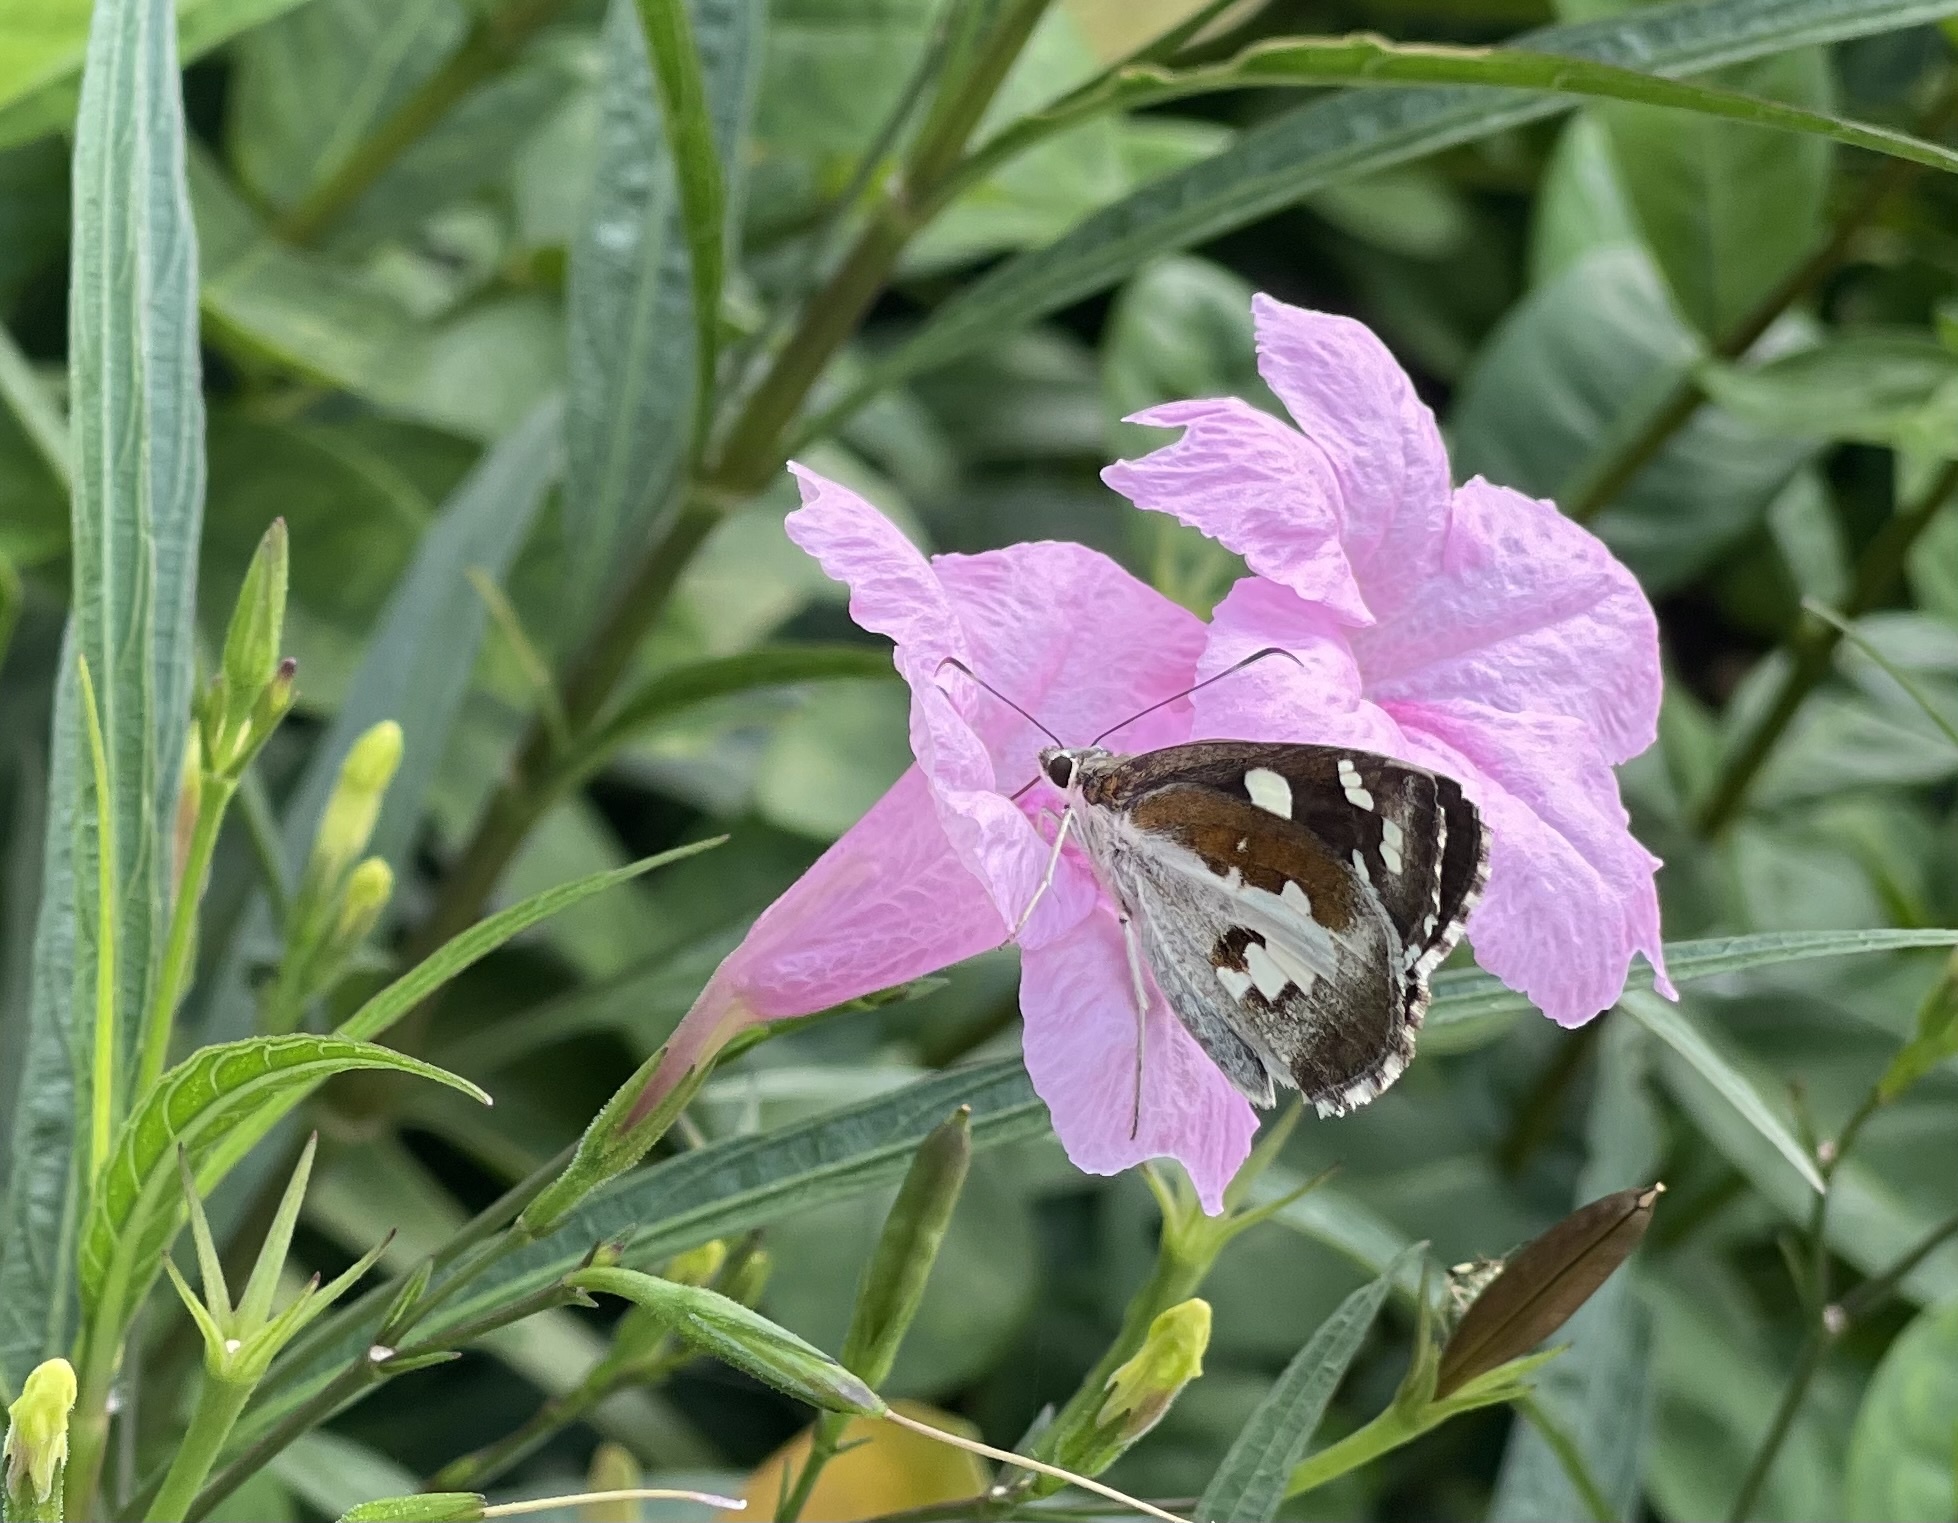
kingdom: Animalia
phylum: Arthropoda
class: Insecta
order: Lepidoptera
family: Hesperiidae
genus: Udaspes
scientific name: Udaspes folus
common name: Grass demon
